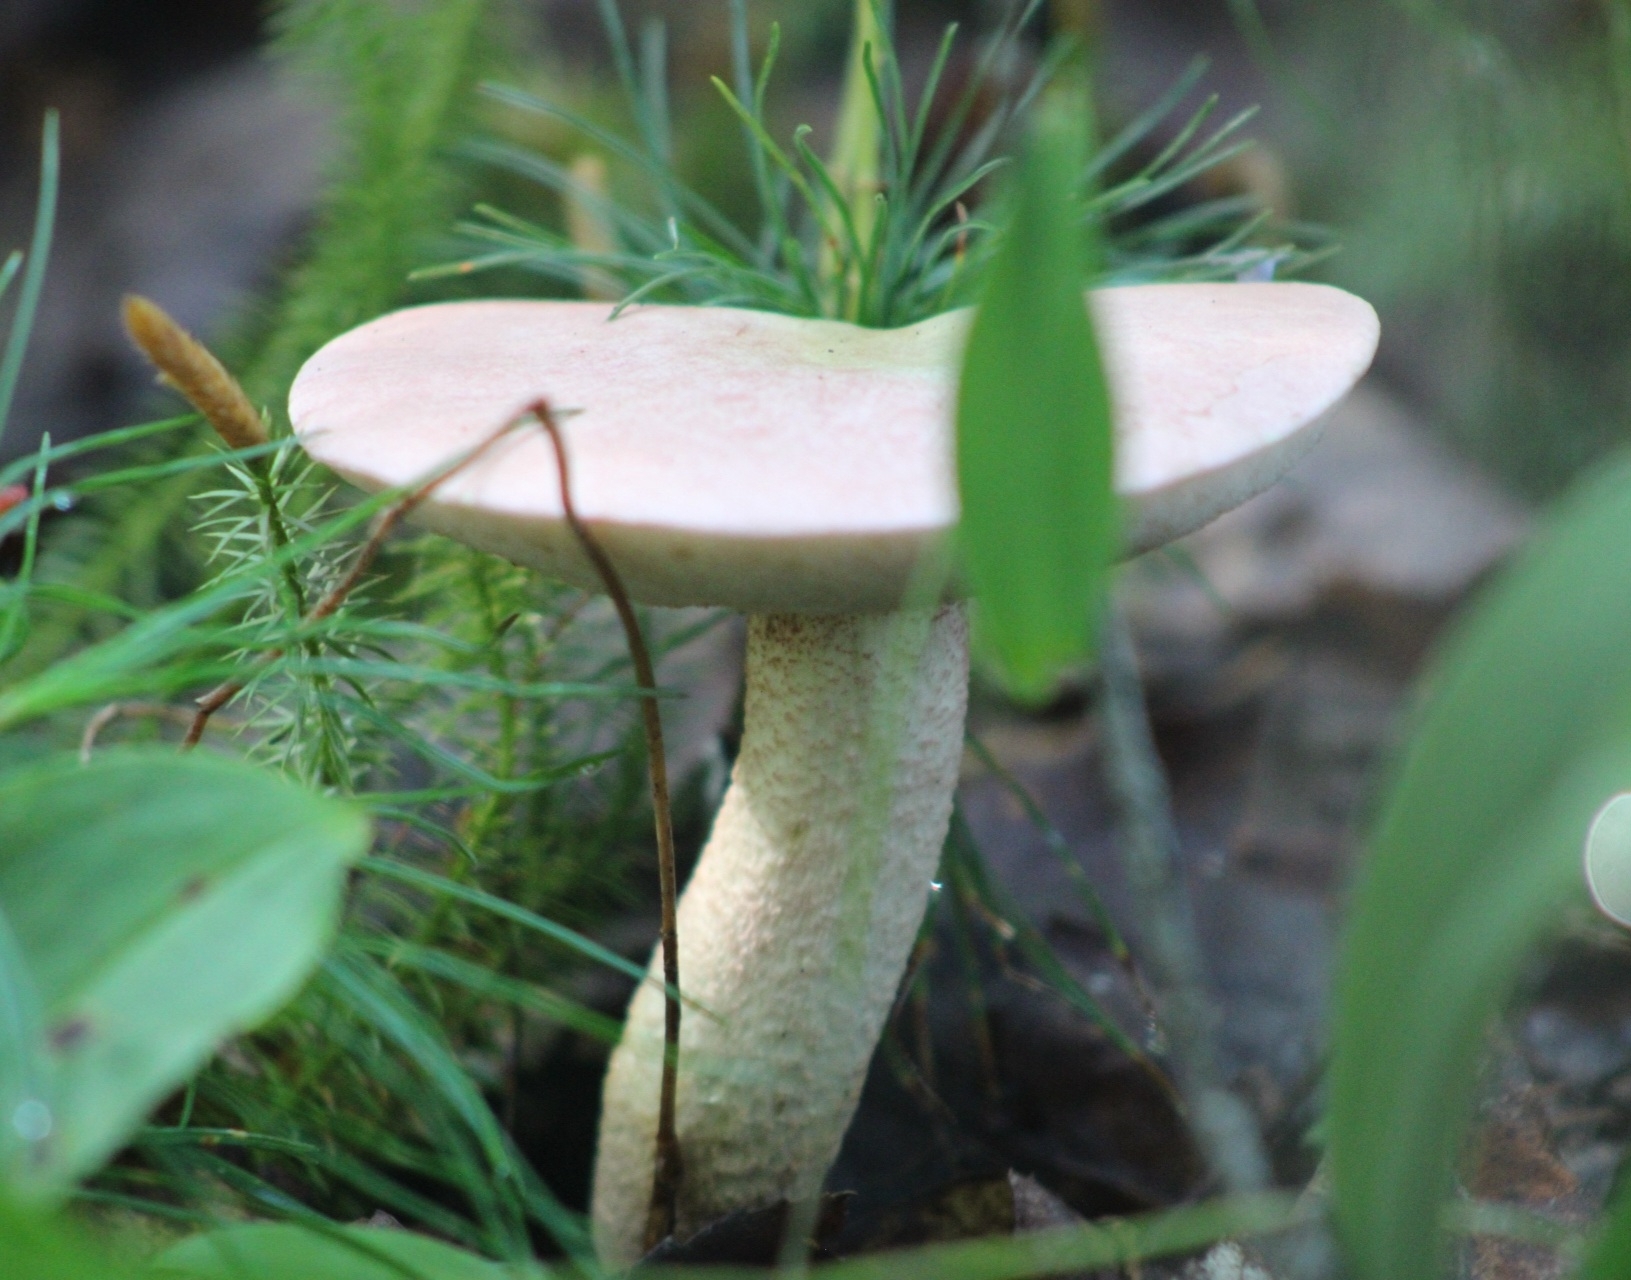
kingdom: Fungi
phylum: Basidiomycota
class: Agaricomycetes
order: Boletales
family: Boletaceae
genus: Harrya
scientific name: Harrya chromipes
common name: Chrome-footed bolete
